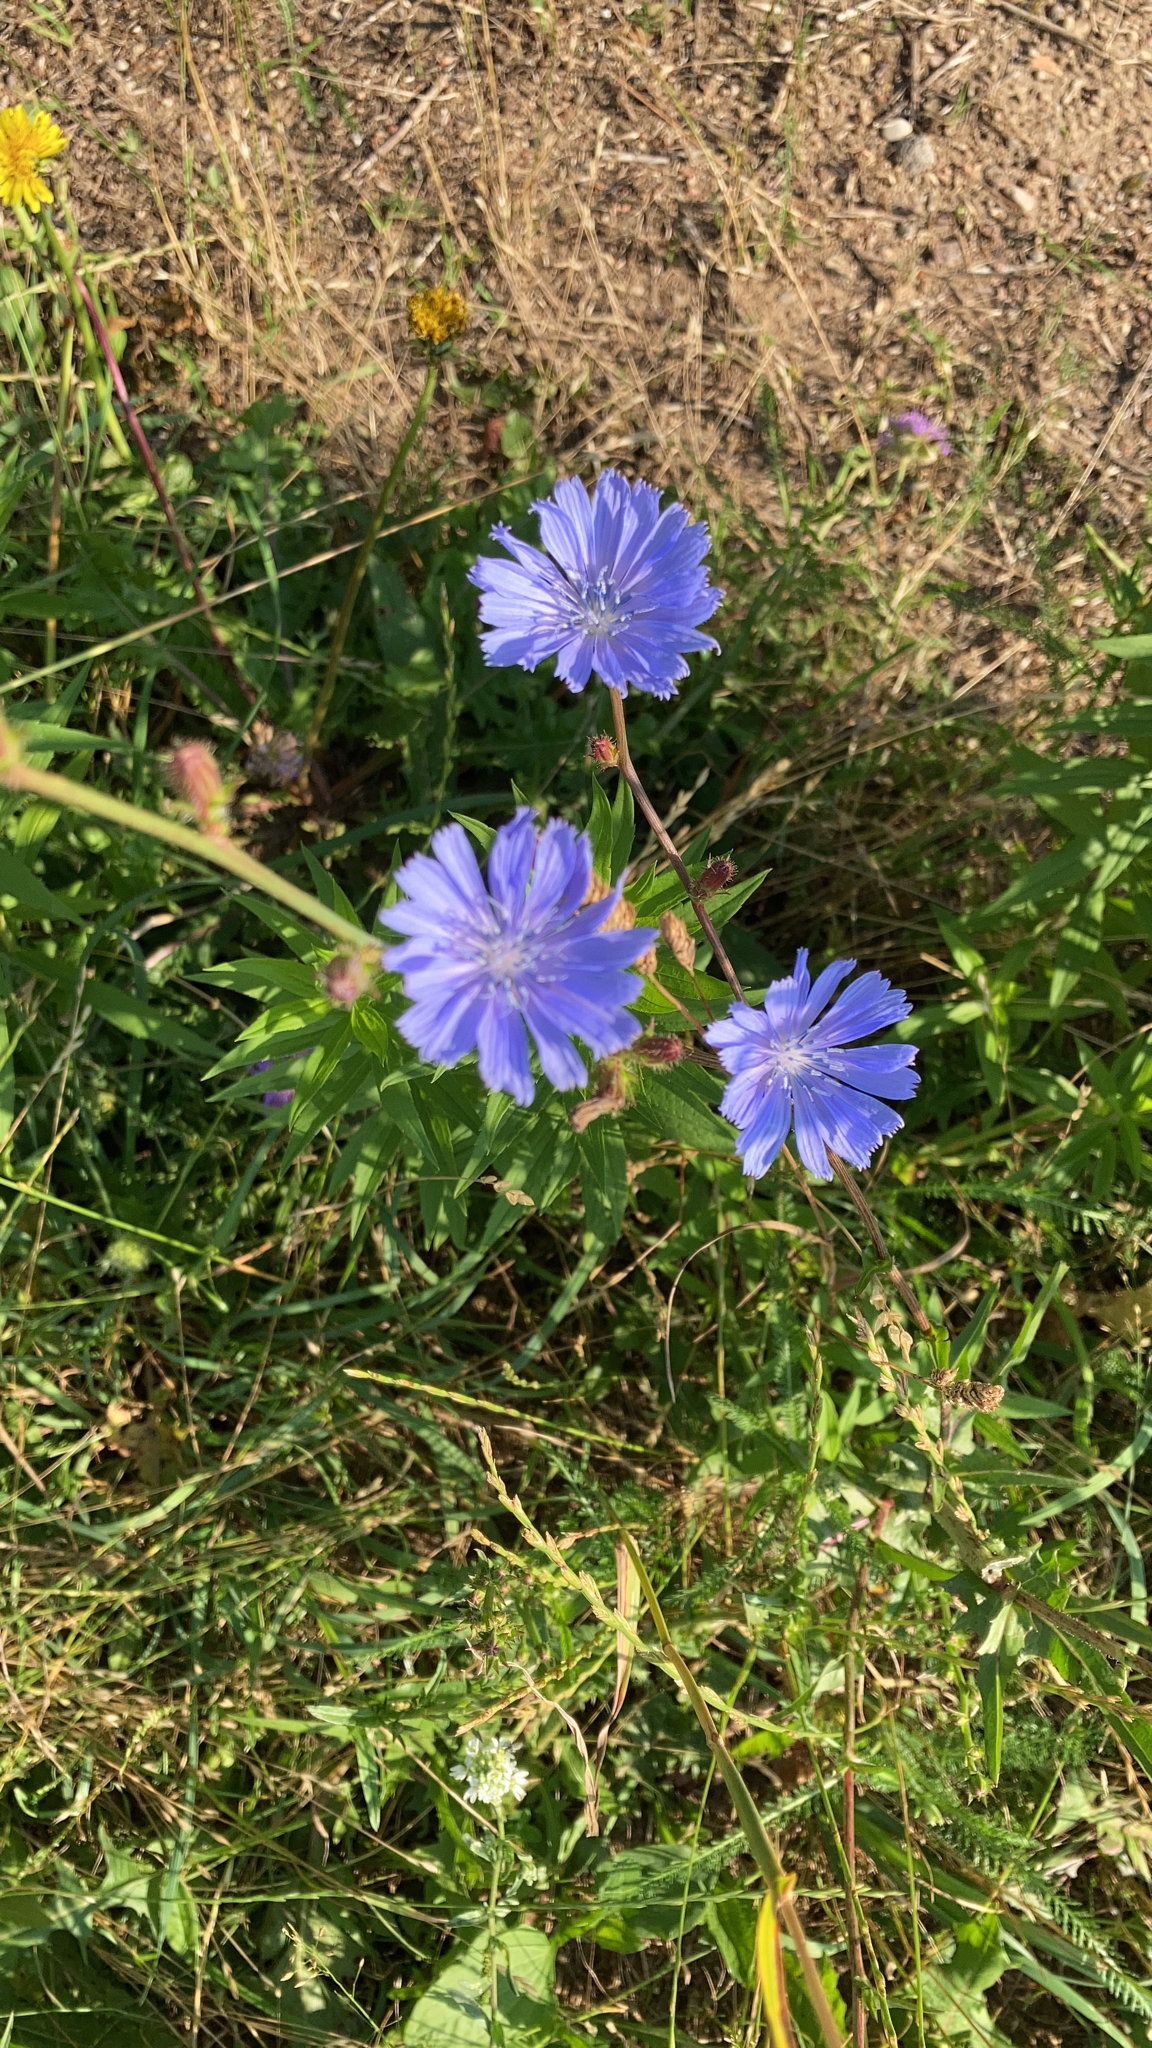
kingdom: Plantae
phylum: Tracheophyta
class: Magnoliopsida
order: Asterales
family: Asteraceae
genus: Cichorium
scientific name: Cichorium intybus
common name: Chicory
